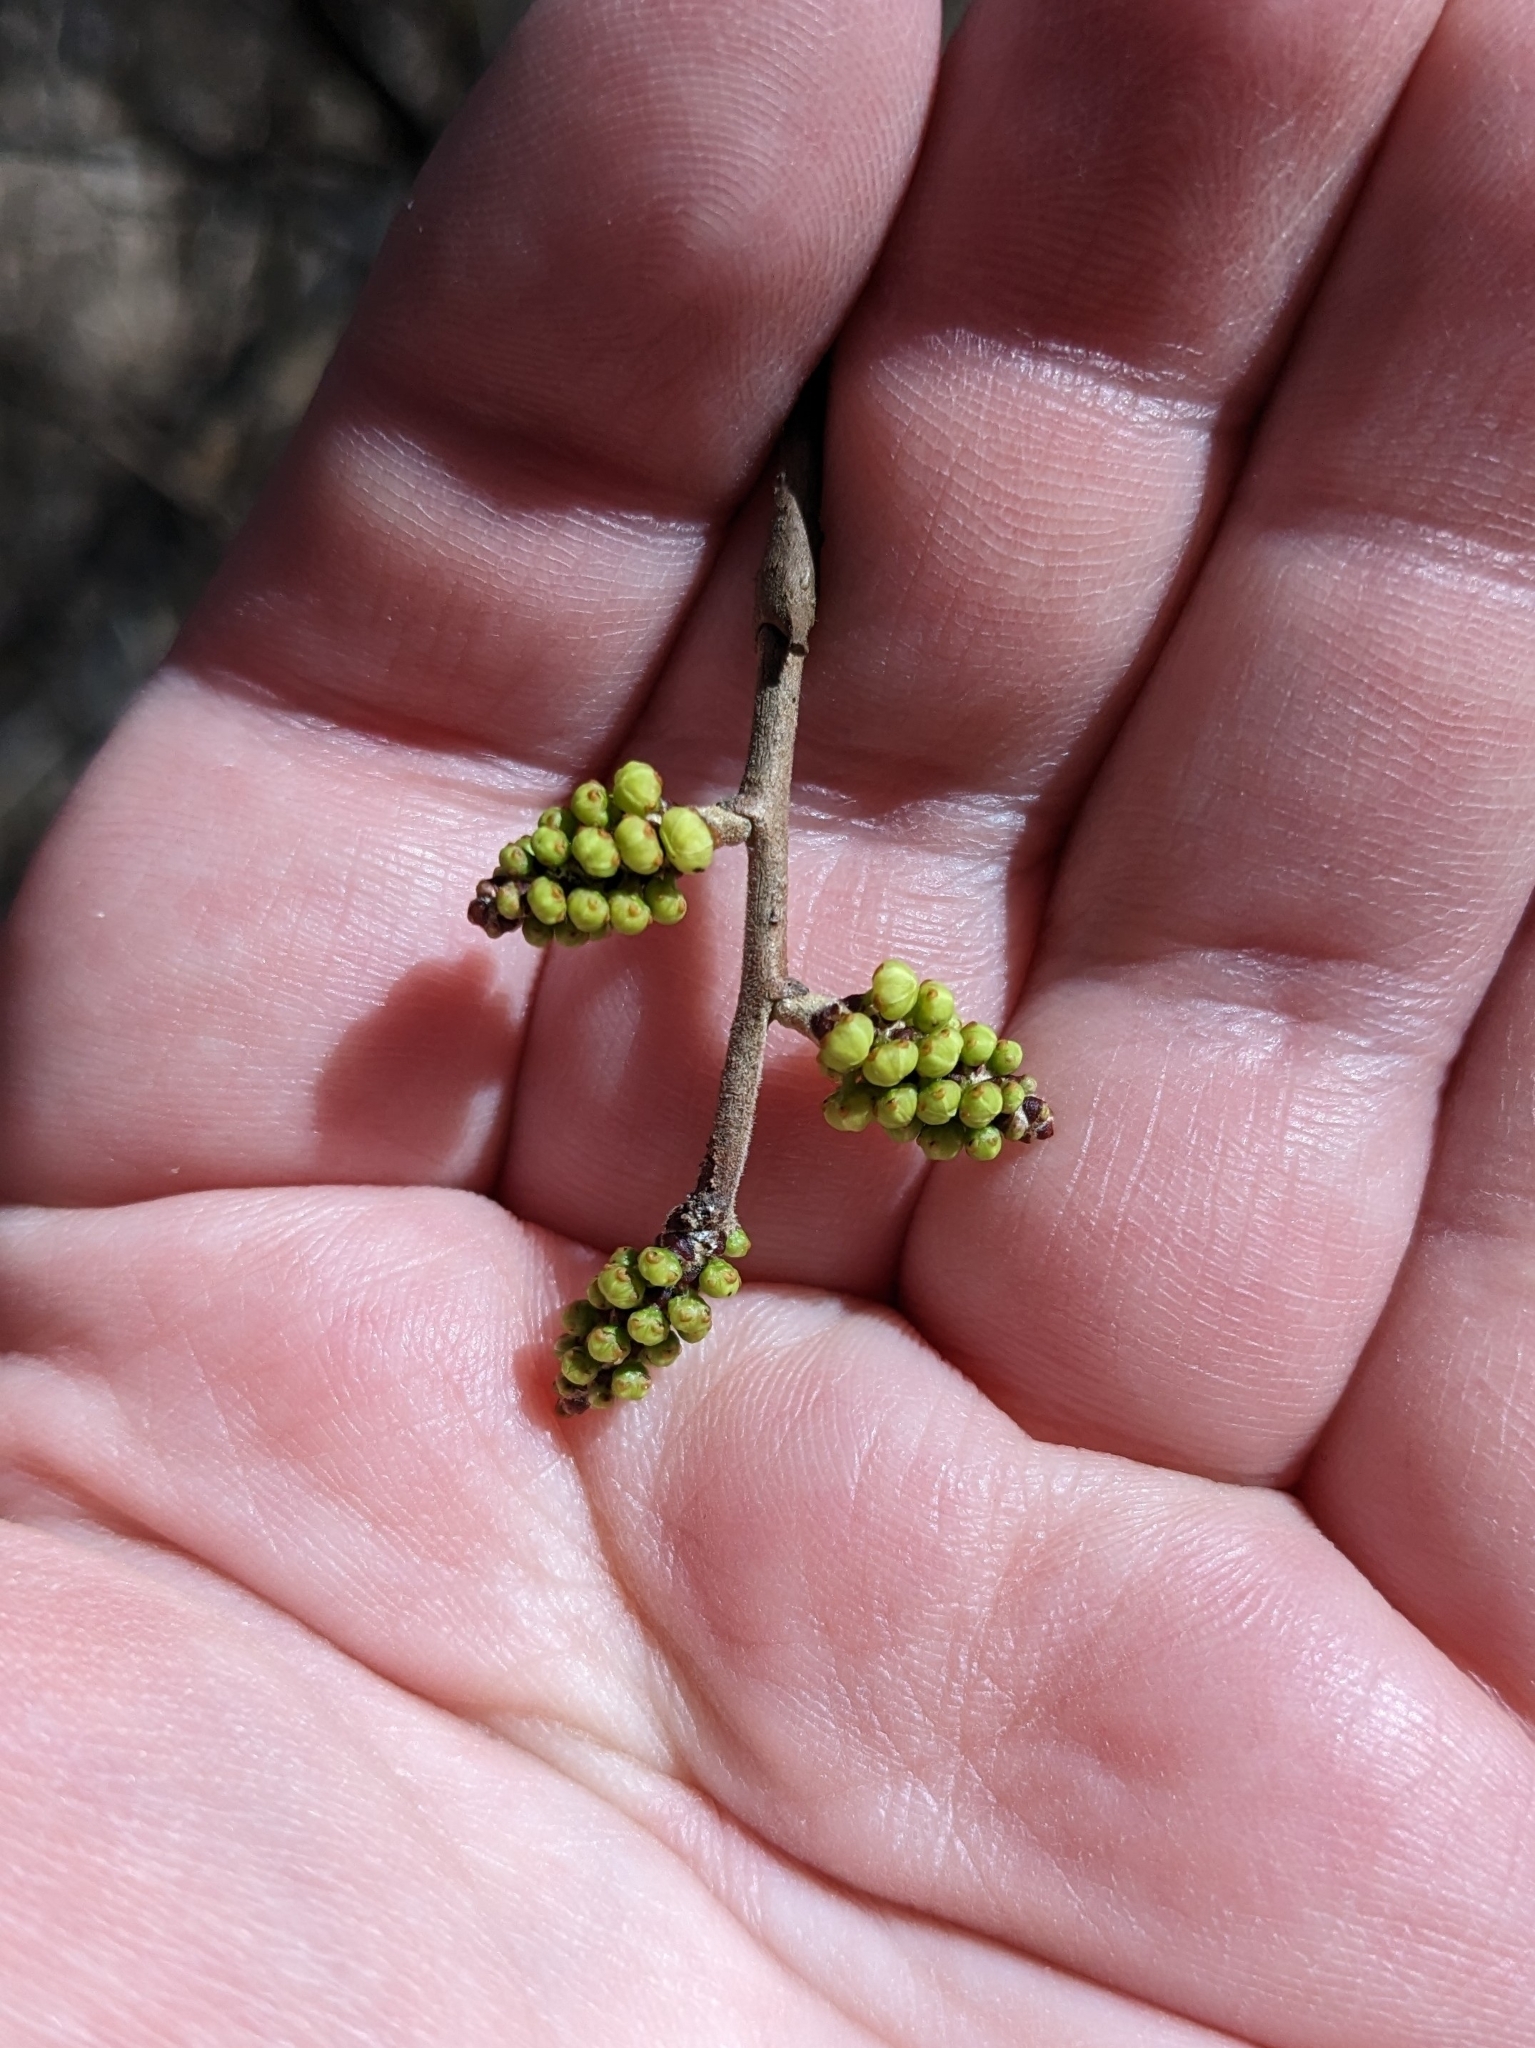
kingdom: Plantae
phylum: Tracheophyta
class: Magnoliopsida
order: Sapindales
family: Anacardiaceae
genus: Rhus
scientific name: Rhus aromatica
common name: Aromatic sumac
